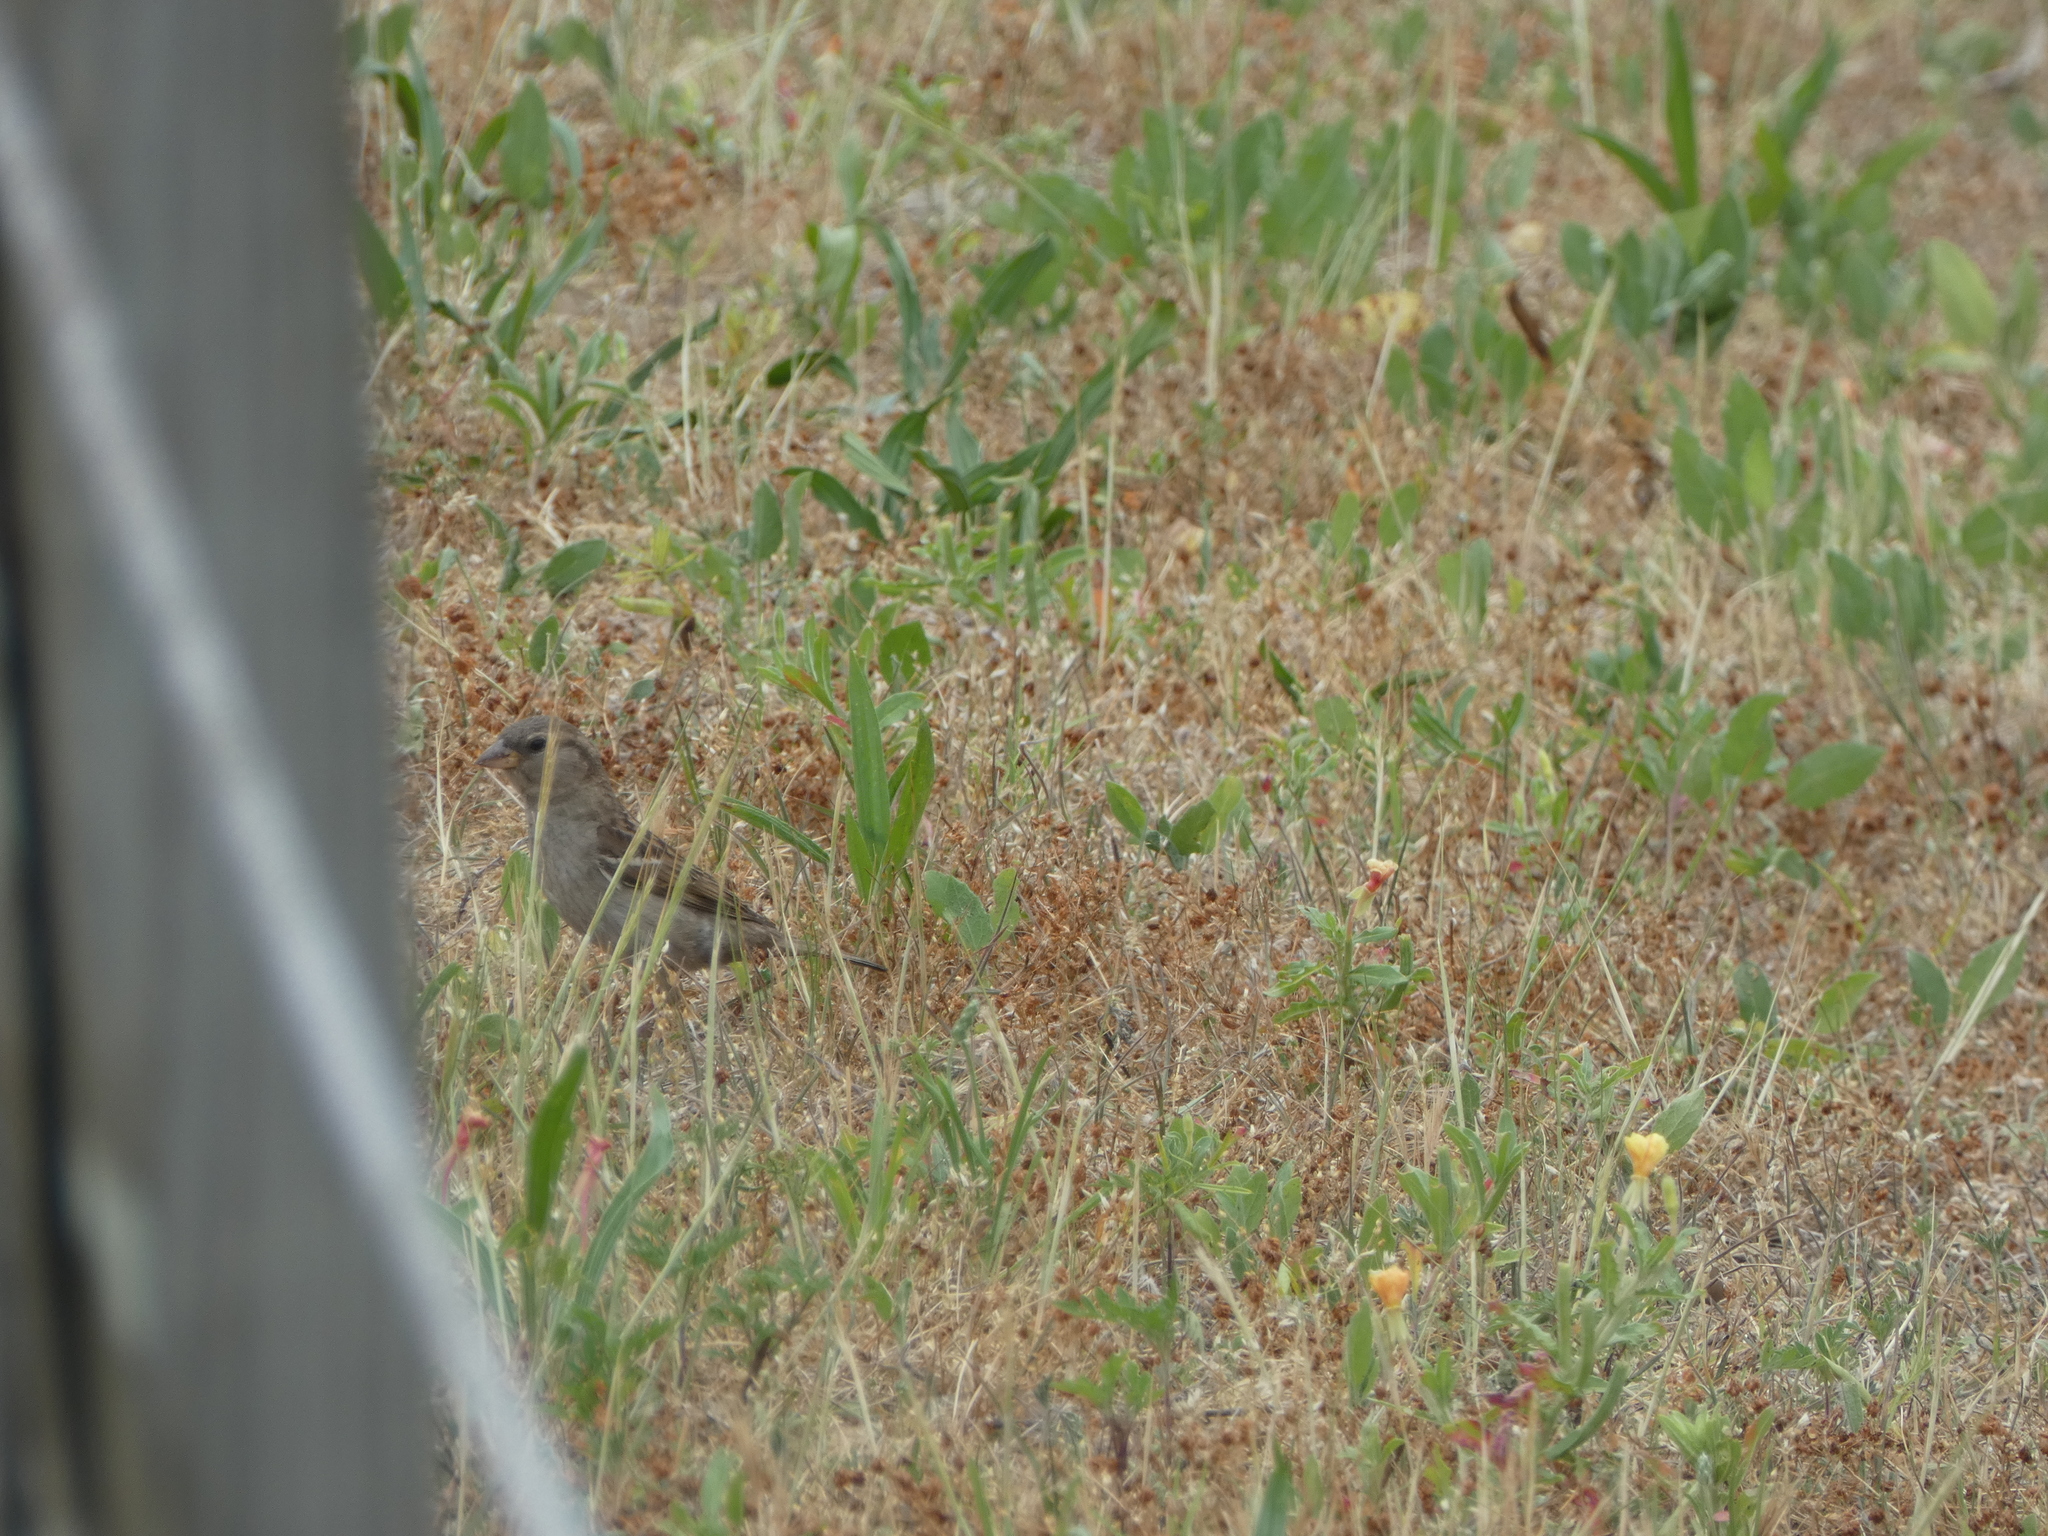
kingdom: Animalia
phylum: Chordata
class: Aves
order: Passeriformes
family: Passeridae
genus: Passer
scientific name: Passer domesticus
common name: House sparrow
